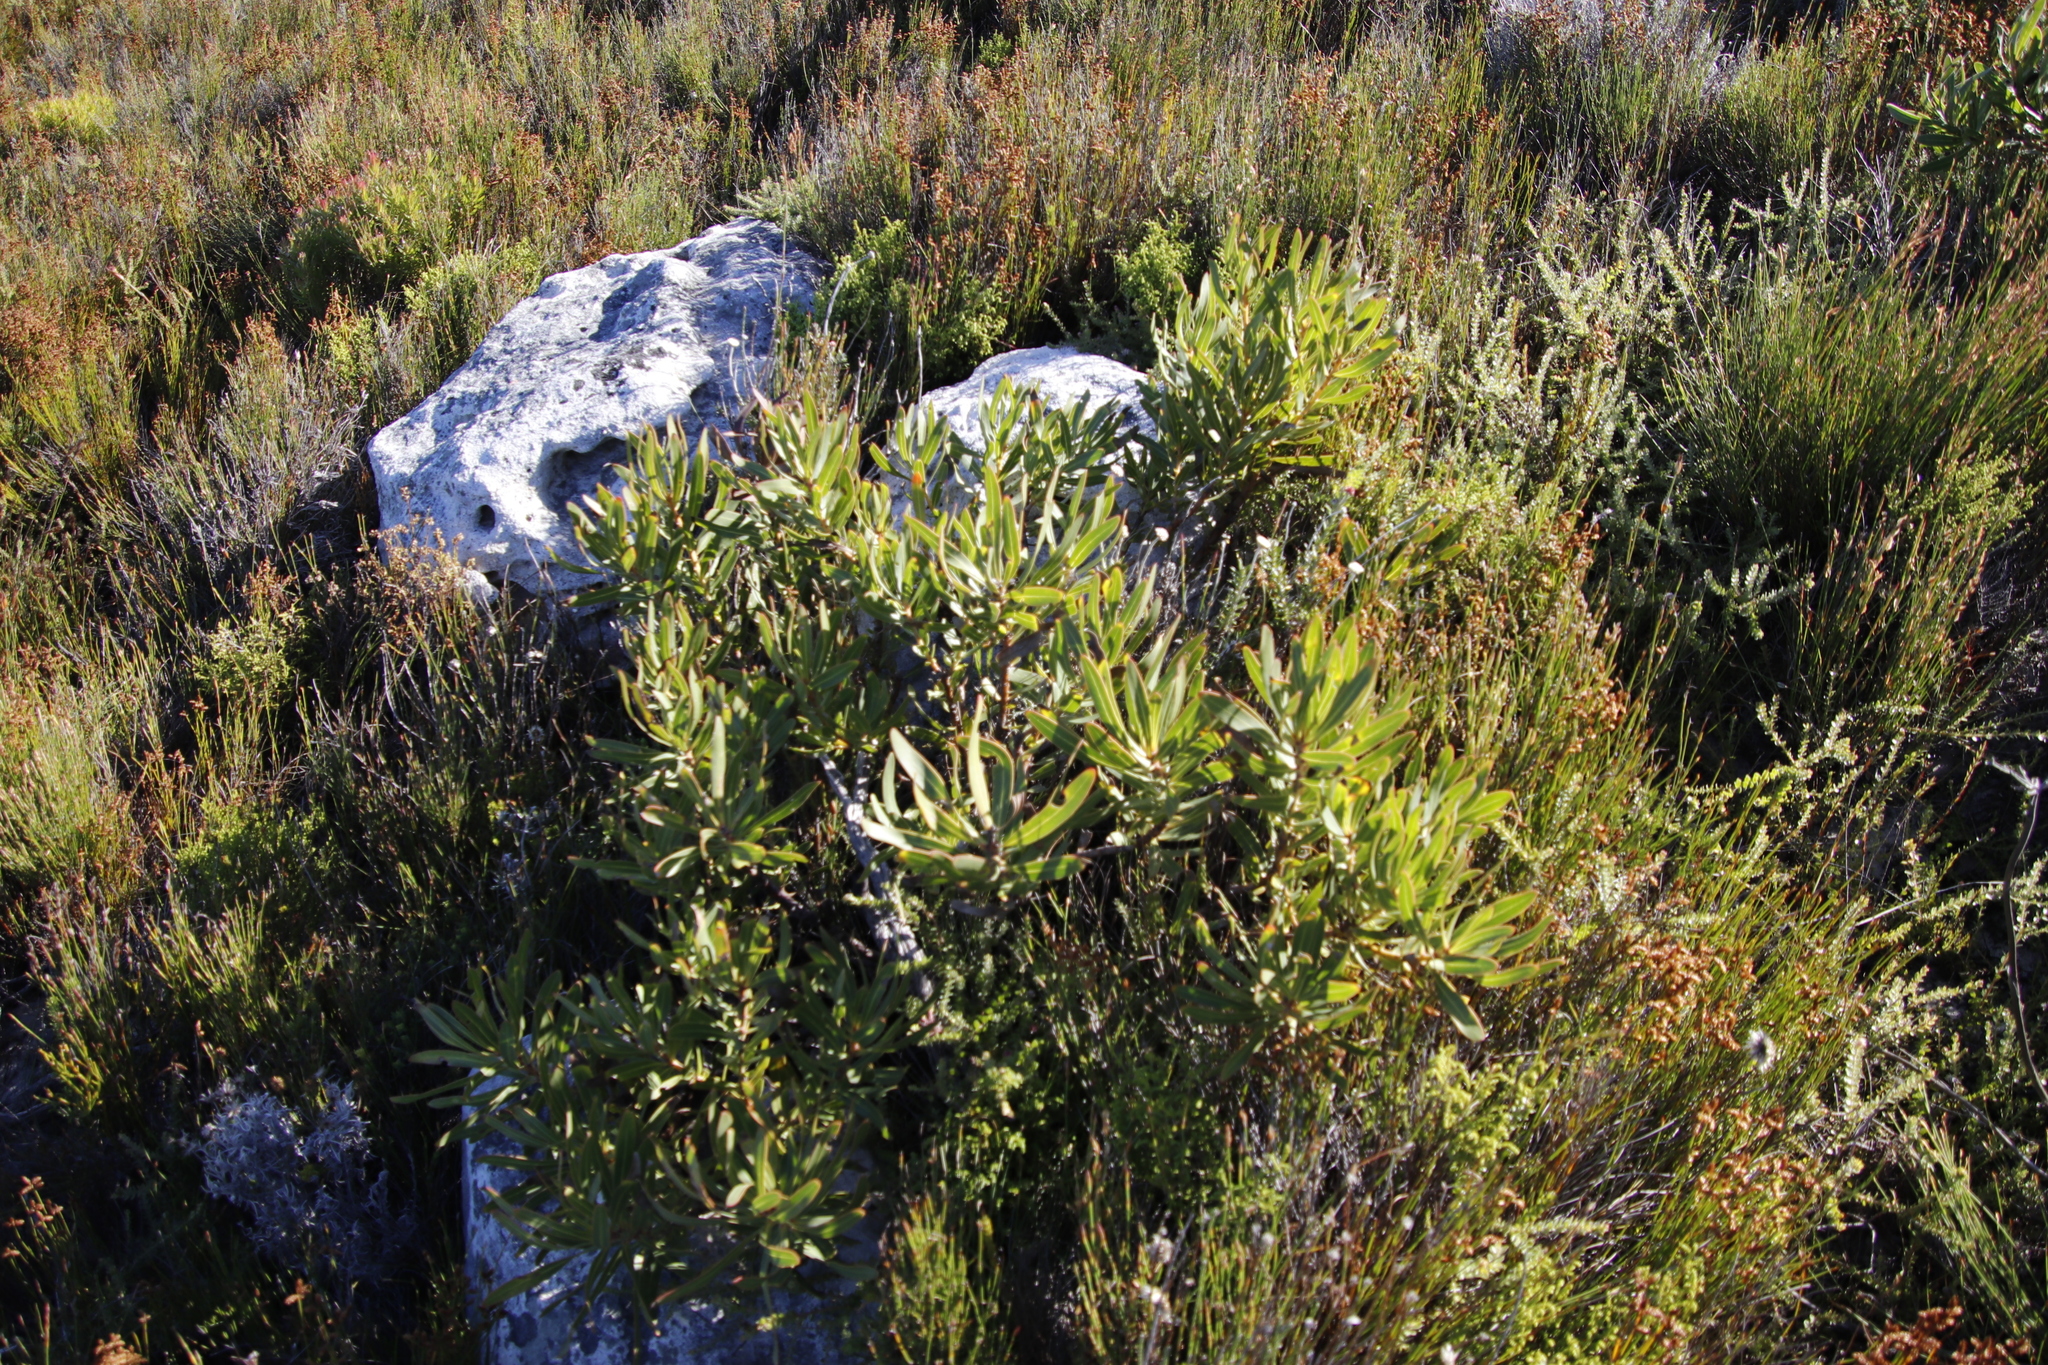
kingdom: Plantae
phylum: Tracheophyta
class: Magnoliopsida
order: Proteales
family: Proteaceae
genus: Protea
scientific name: Protea lepidocarpodendron
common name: Black-bearded protea
